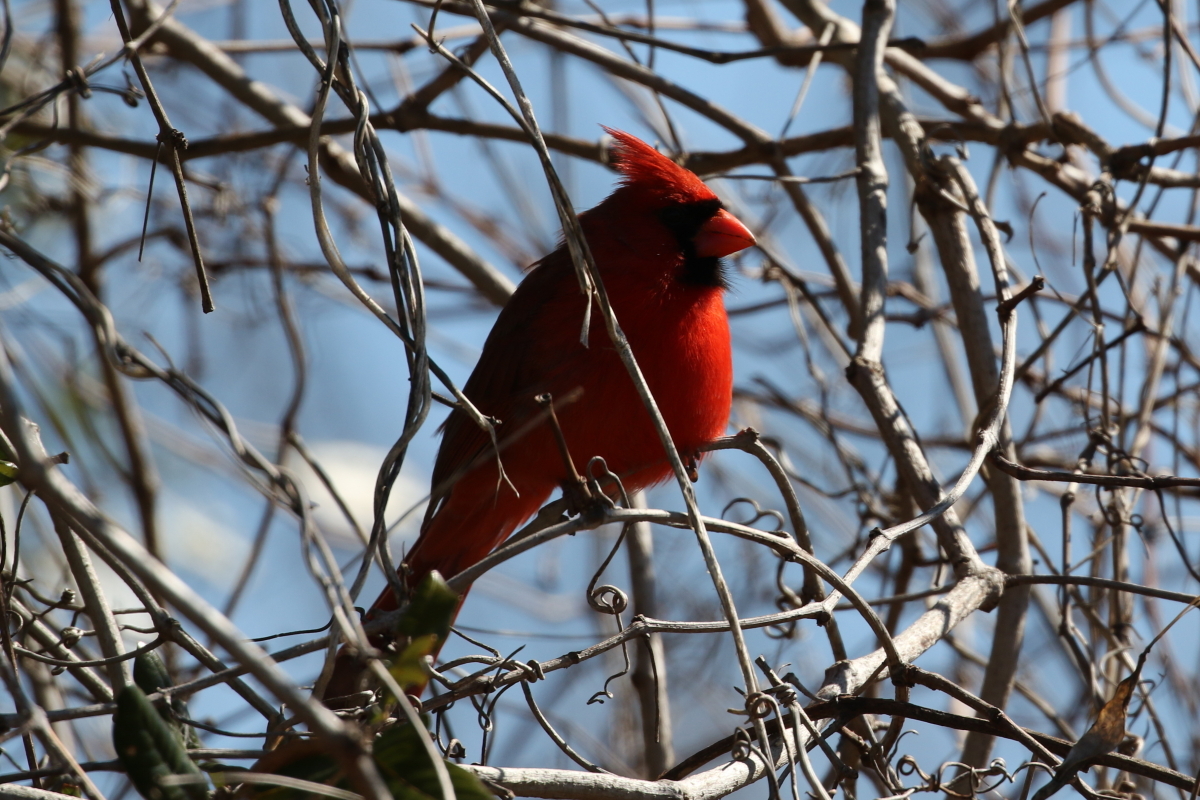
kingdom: Animalia
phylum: Chordata
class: Aves
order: Passeriformes
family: Cardinalidae
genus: Cardinalis
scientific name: Cardinalis cardinalis
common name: Northern cardinal
